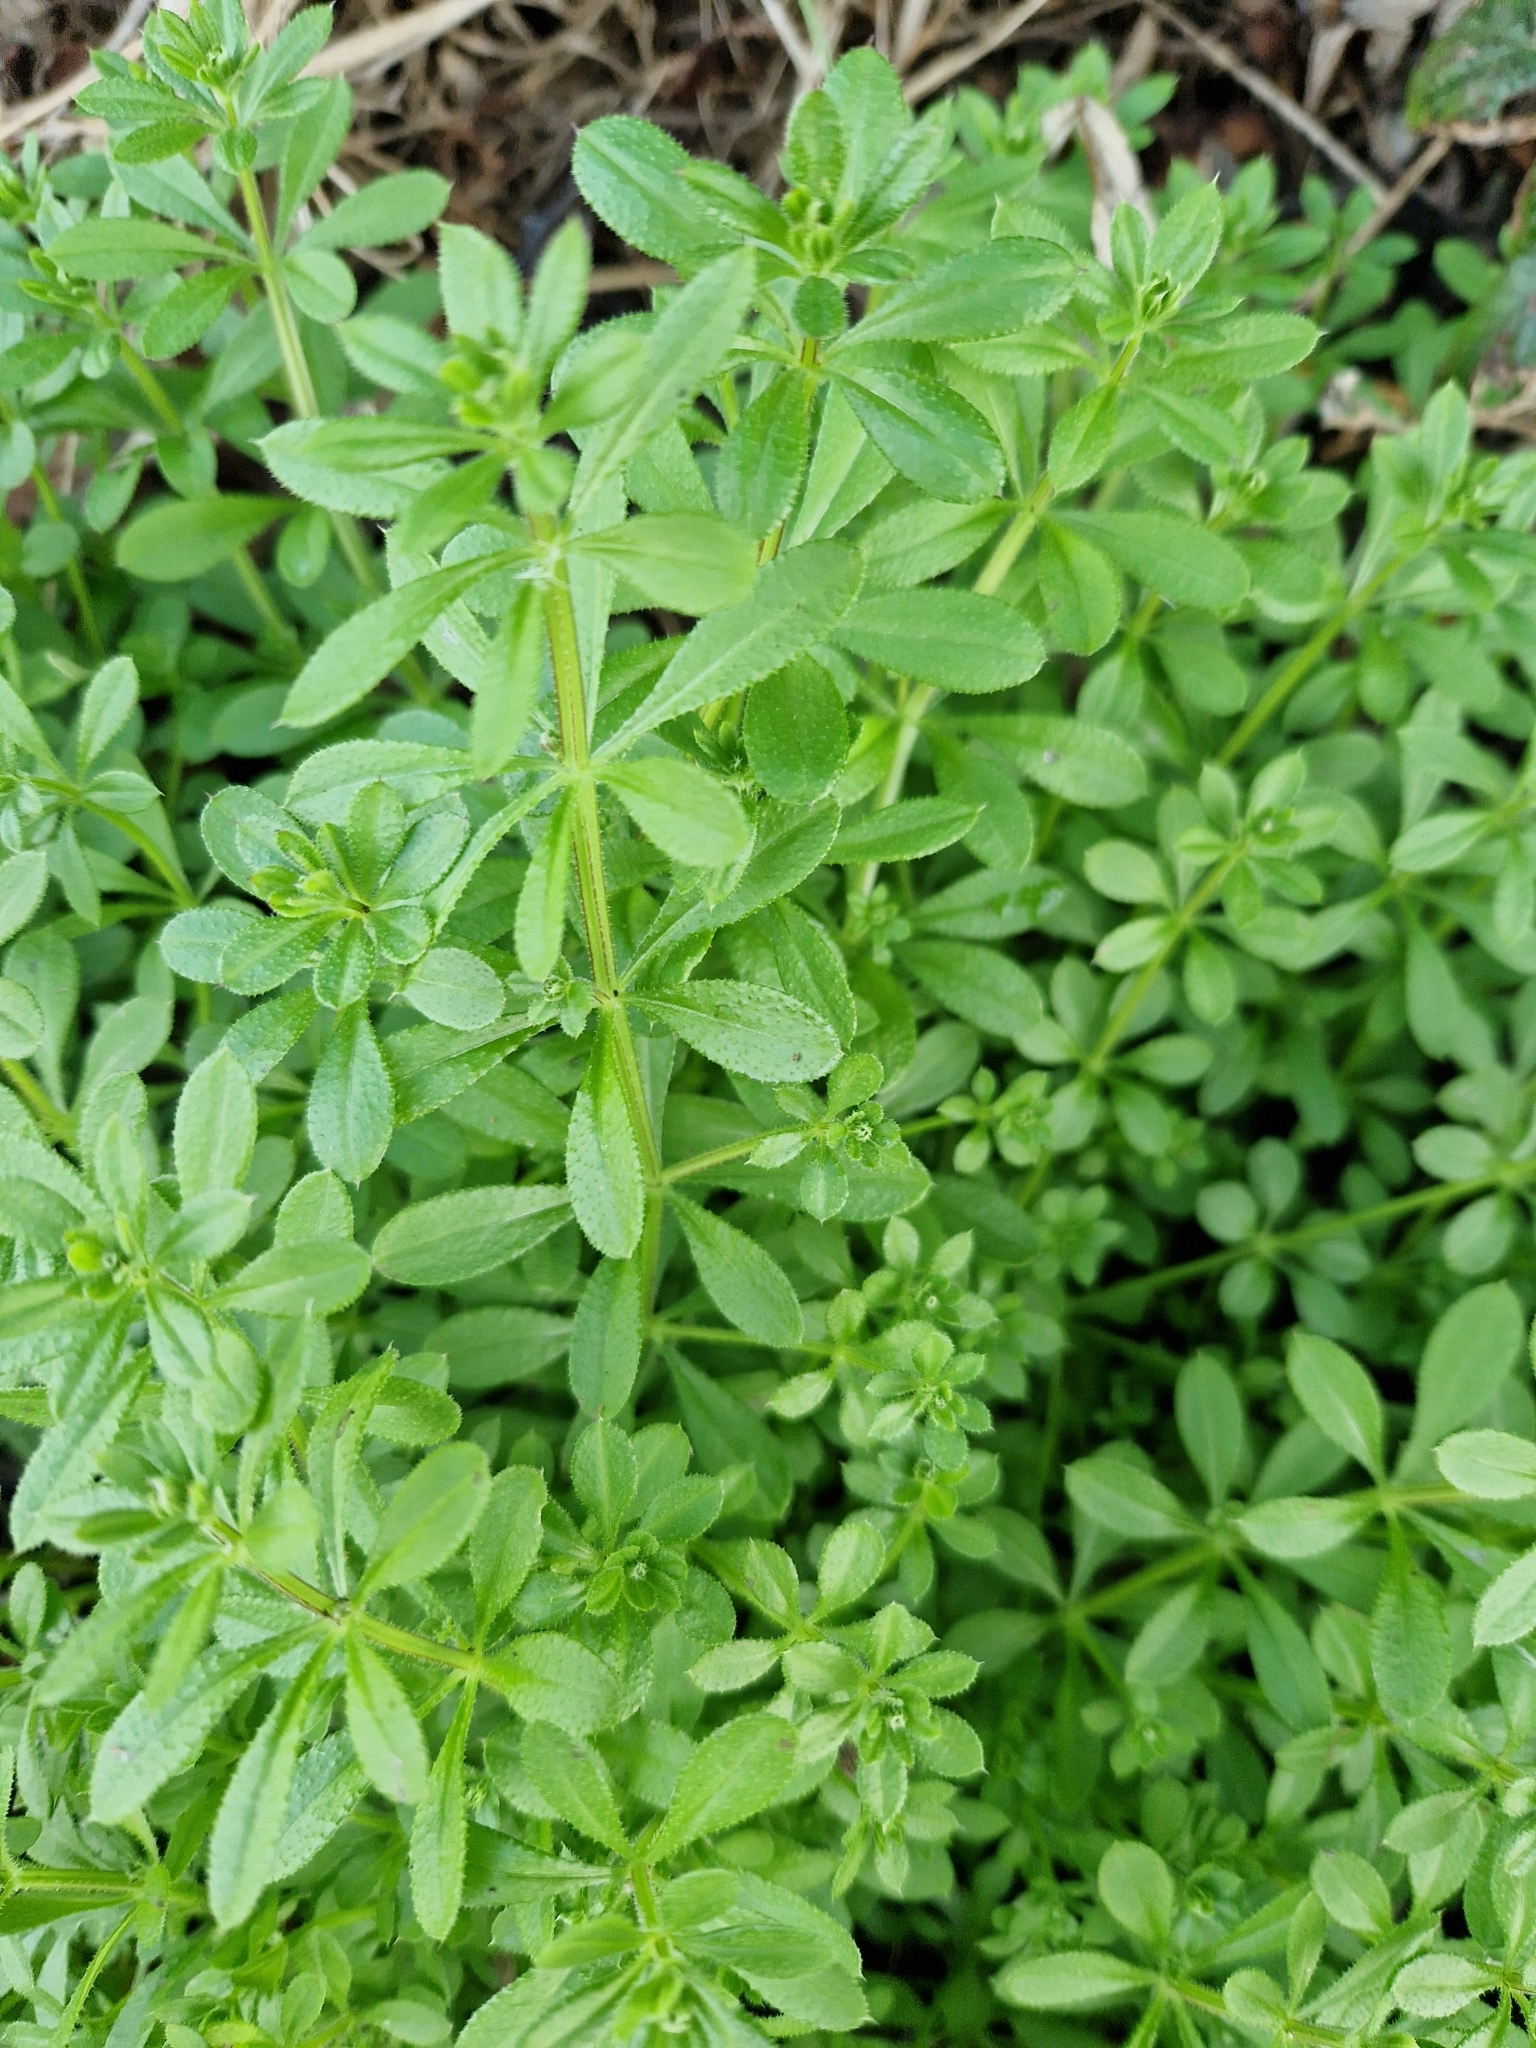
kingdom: Plantae
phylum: Tracheophyta
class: Magnoliopsida
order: Gentianales
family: Rubiaceae
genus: Galium
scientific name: Galium aparine
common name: Cleavers
